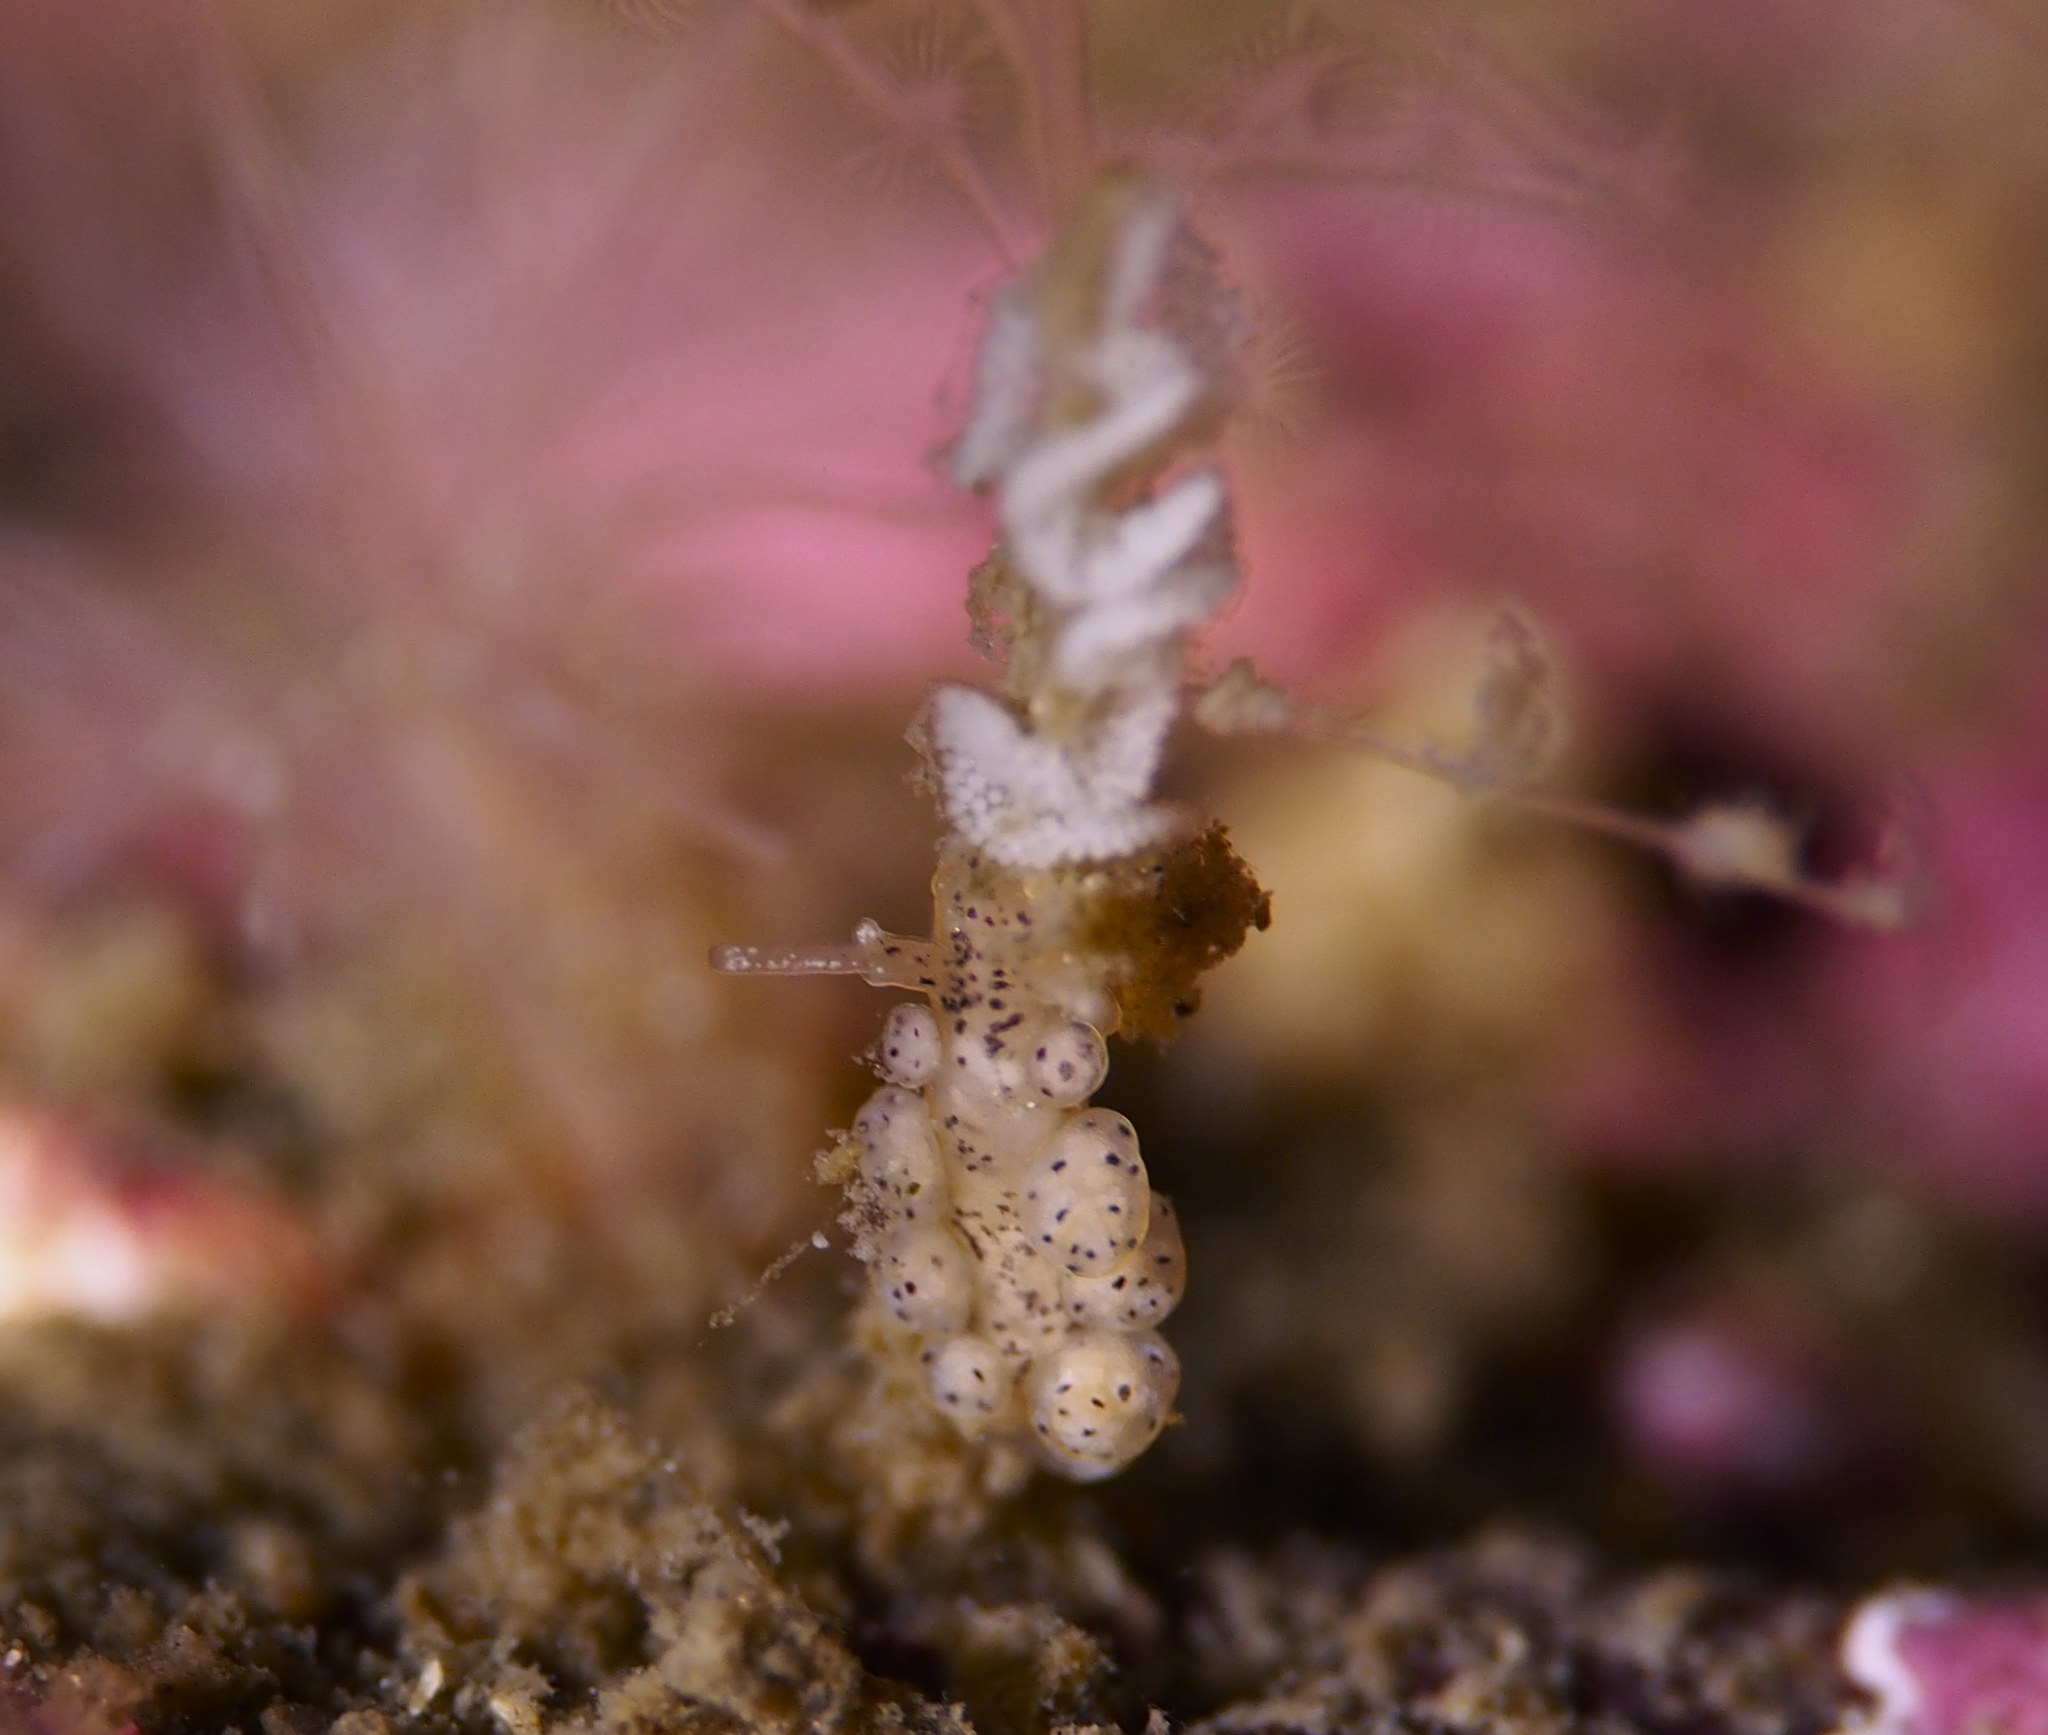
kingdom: Animalia
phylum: Mollusca
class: Gastropoda
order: Nudibranchia
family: Dotidae
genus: Doto
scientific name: Doto dunnei
